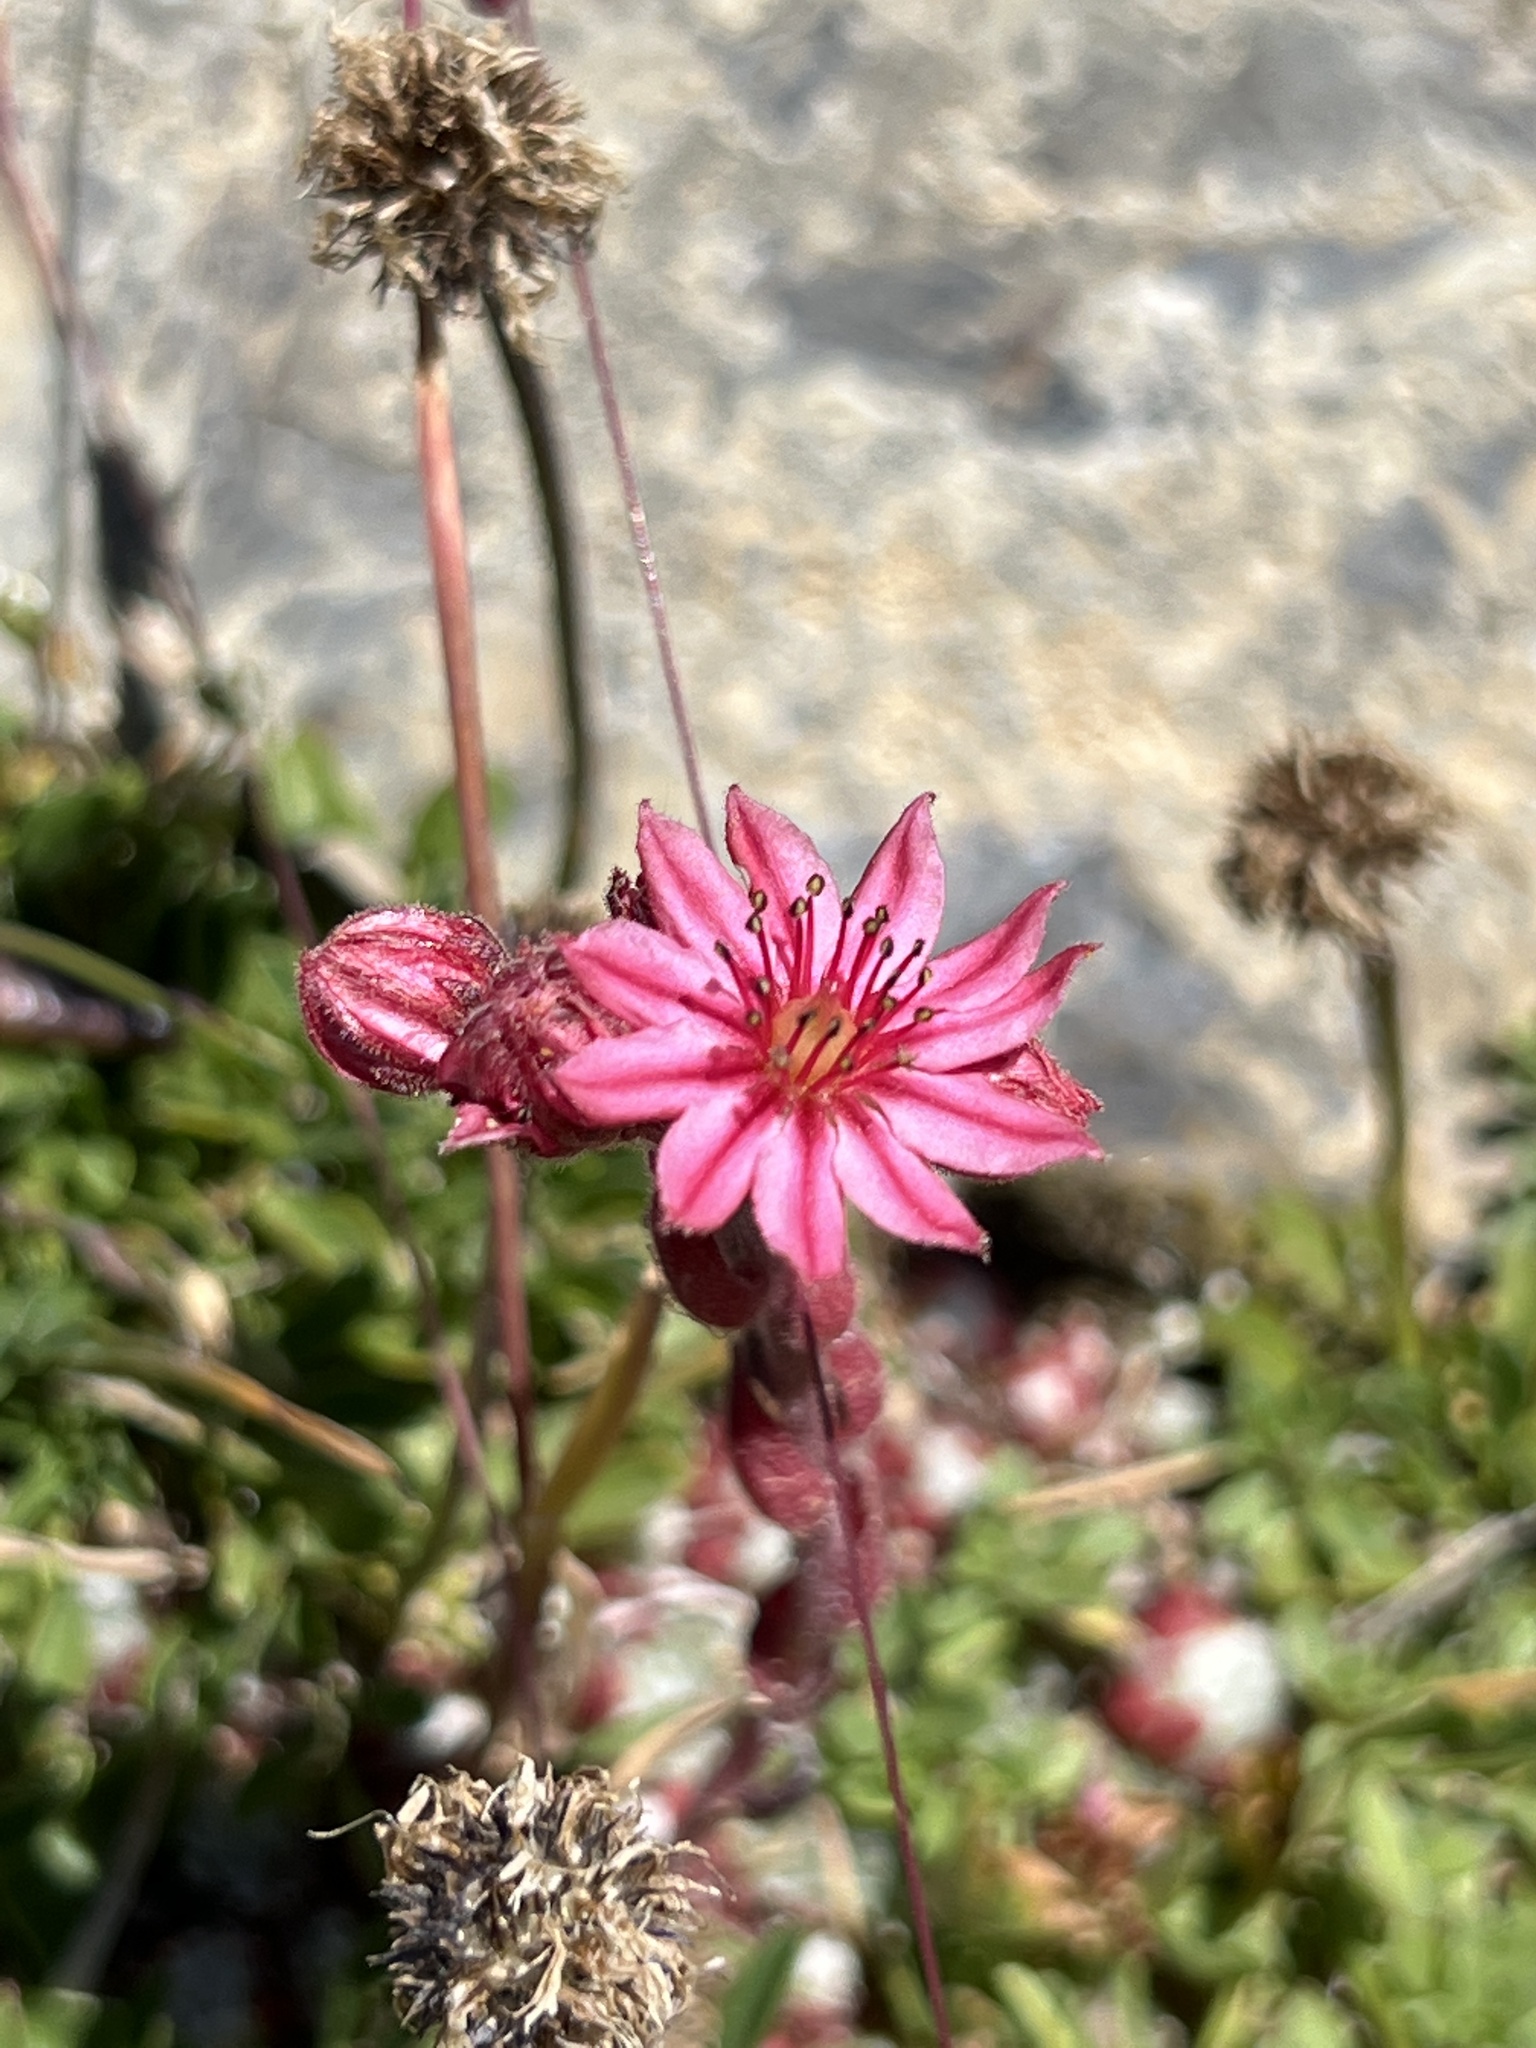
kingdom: Plantae
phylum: Tracheophyta
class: Magnoliopsida
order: Saxifragales
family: Crassulaceae
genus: Sempervivum
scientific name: Sempervivum arachnoideum
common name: Cobweb house-leek
